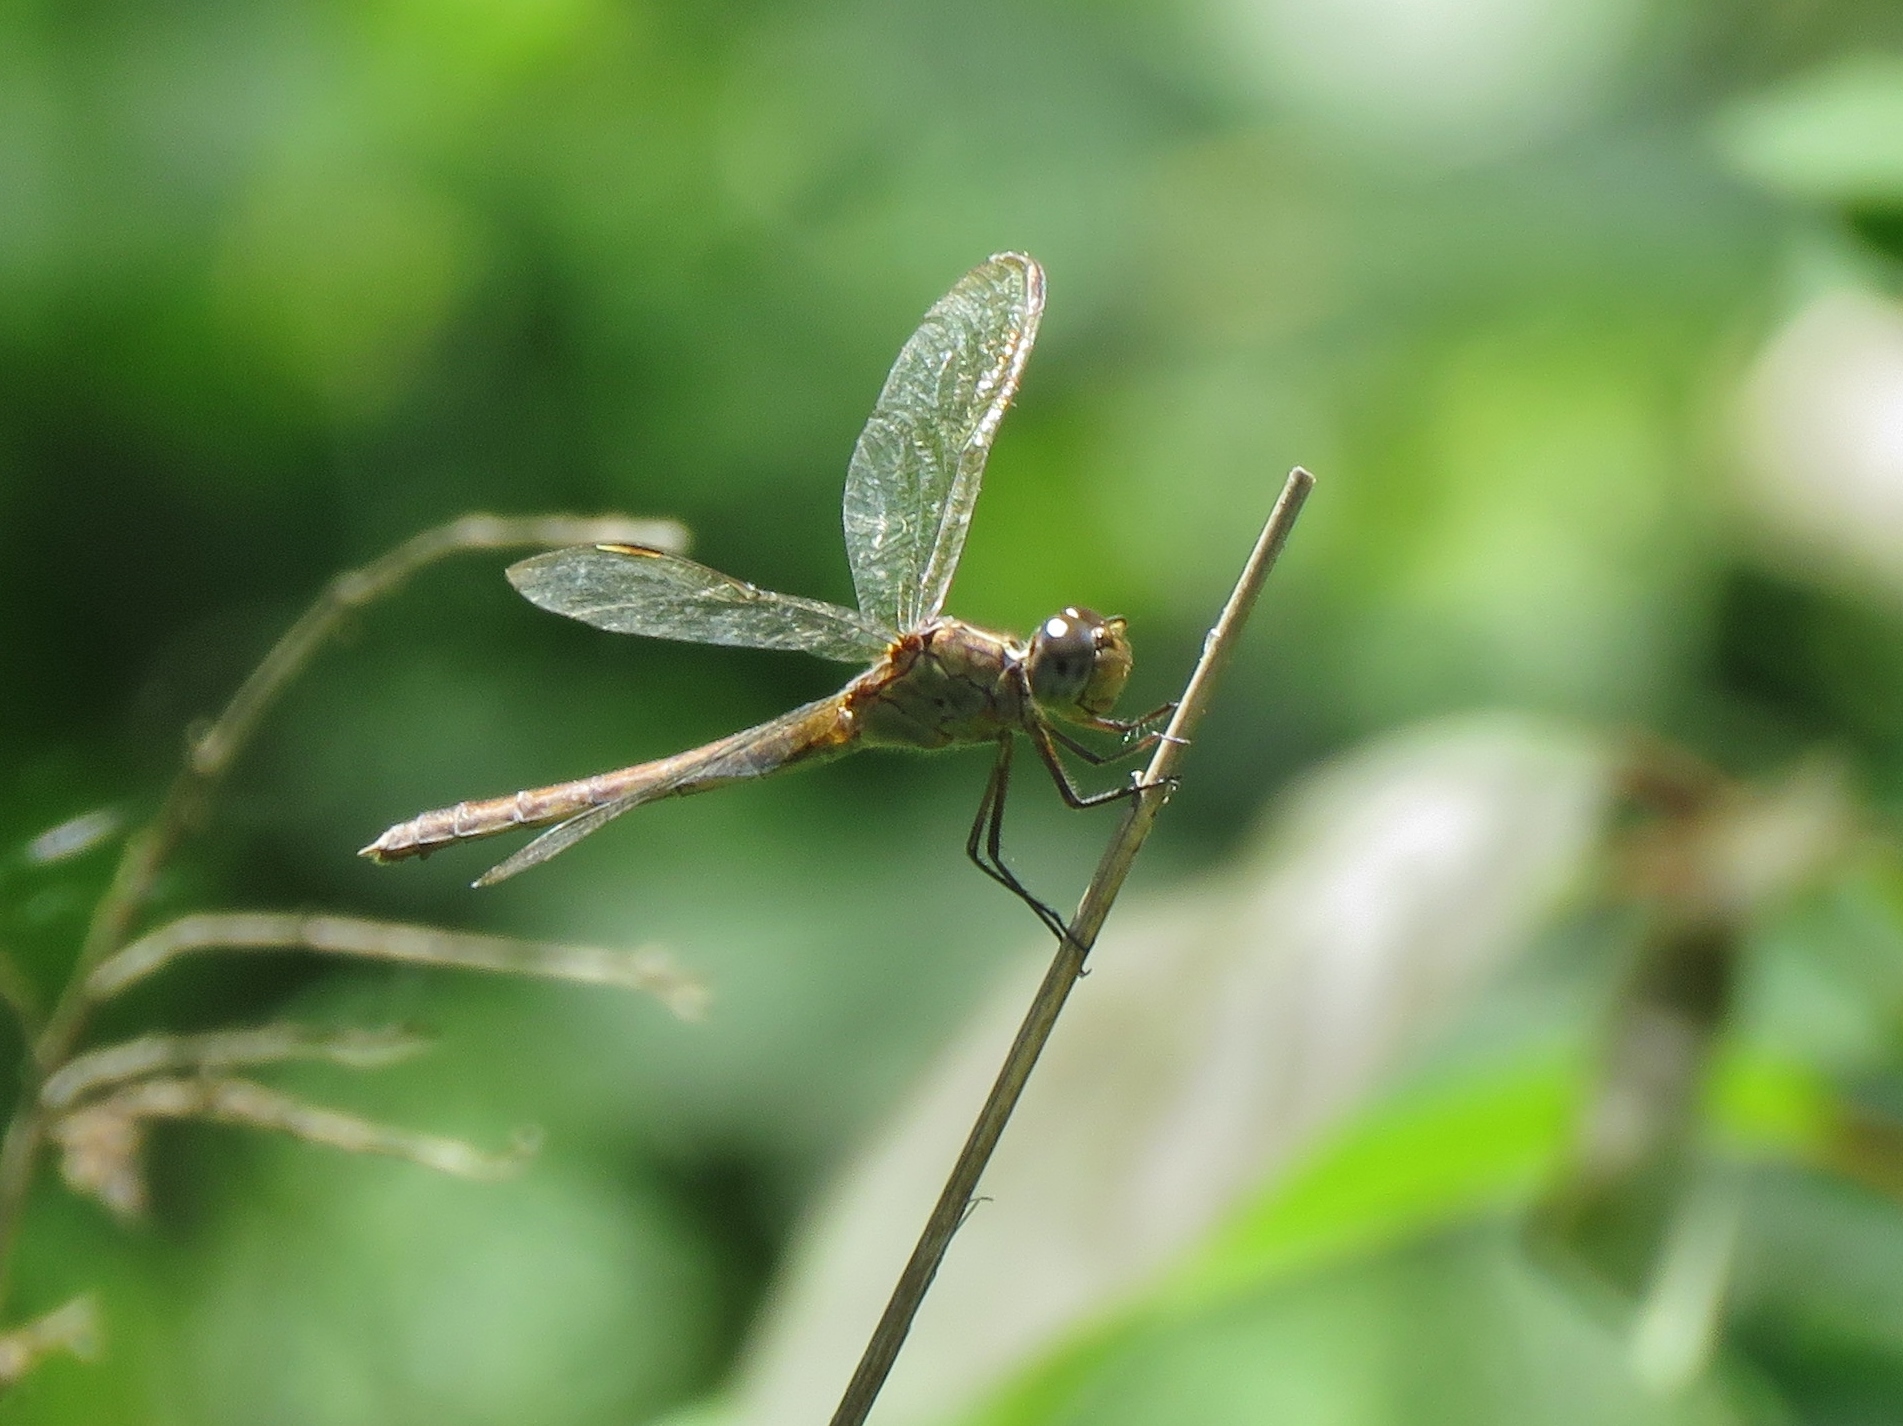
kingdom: Animalia
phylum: Arthropoda
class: Insecta
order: Odonata
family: Libellulidae
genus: Erythrodiplax
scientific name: Erythrodiplax umbrata
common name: Band-winged dragonlet
